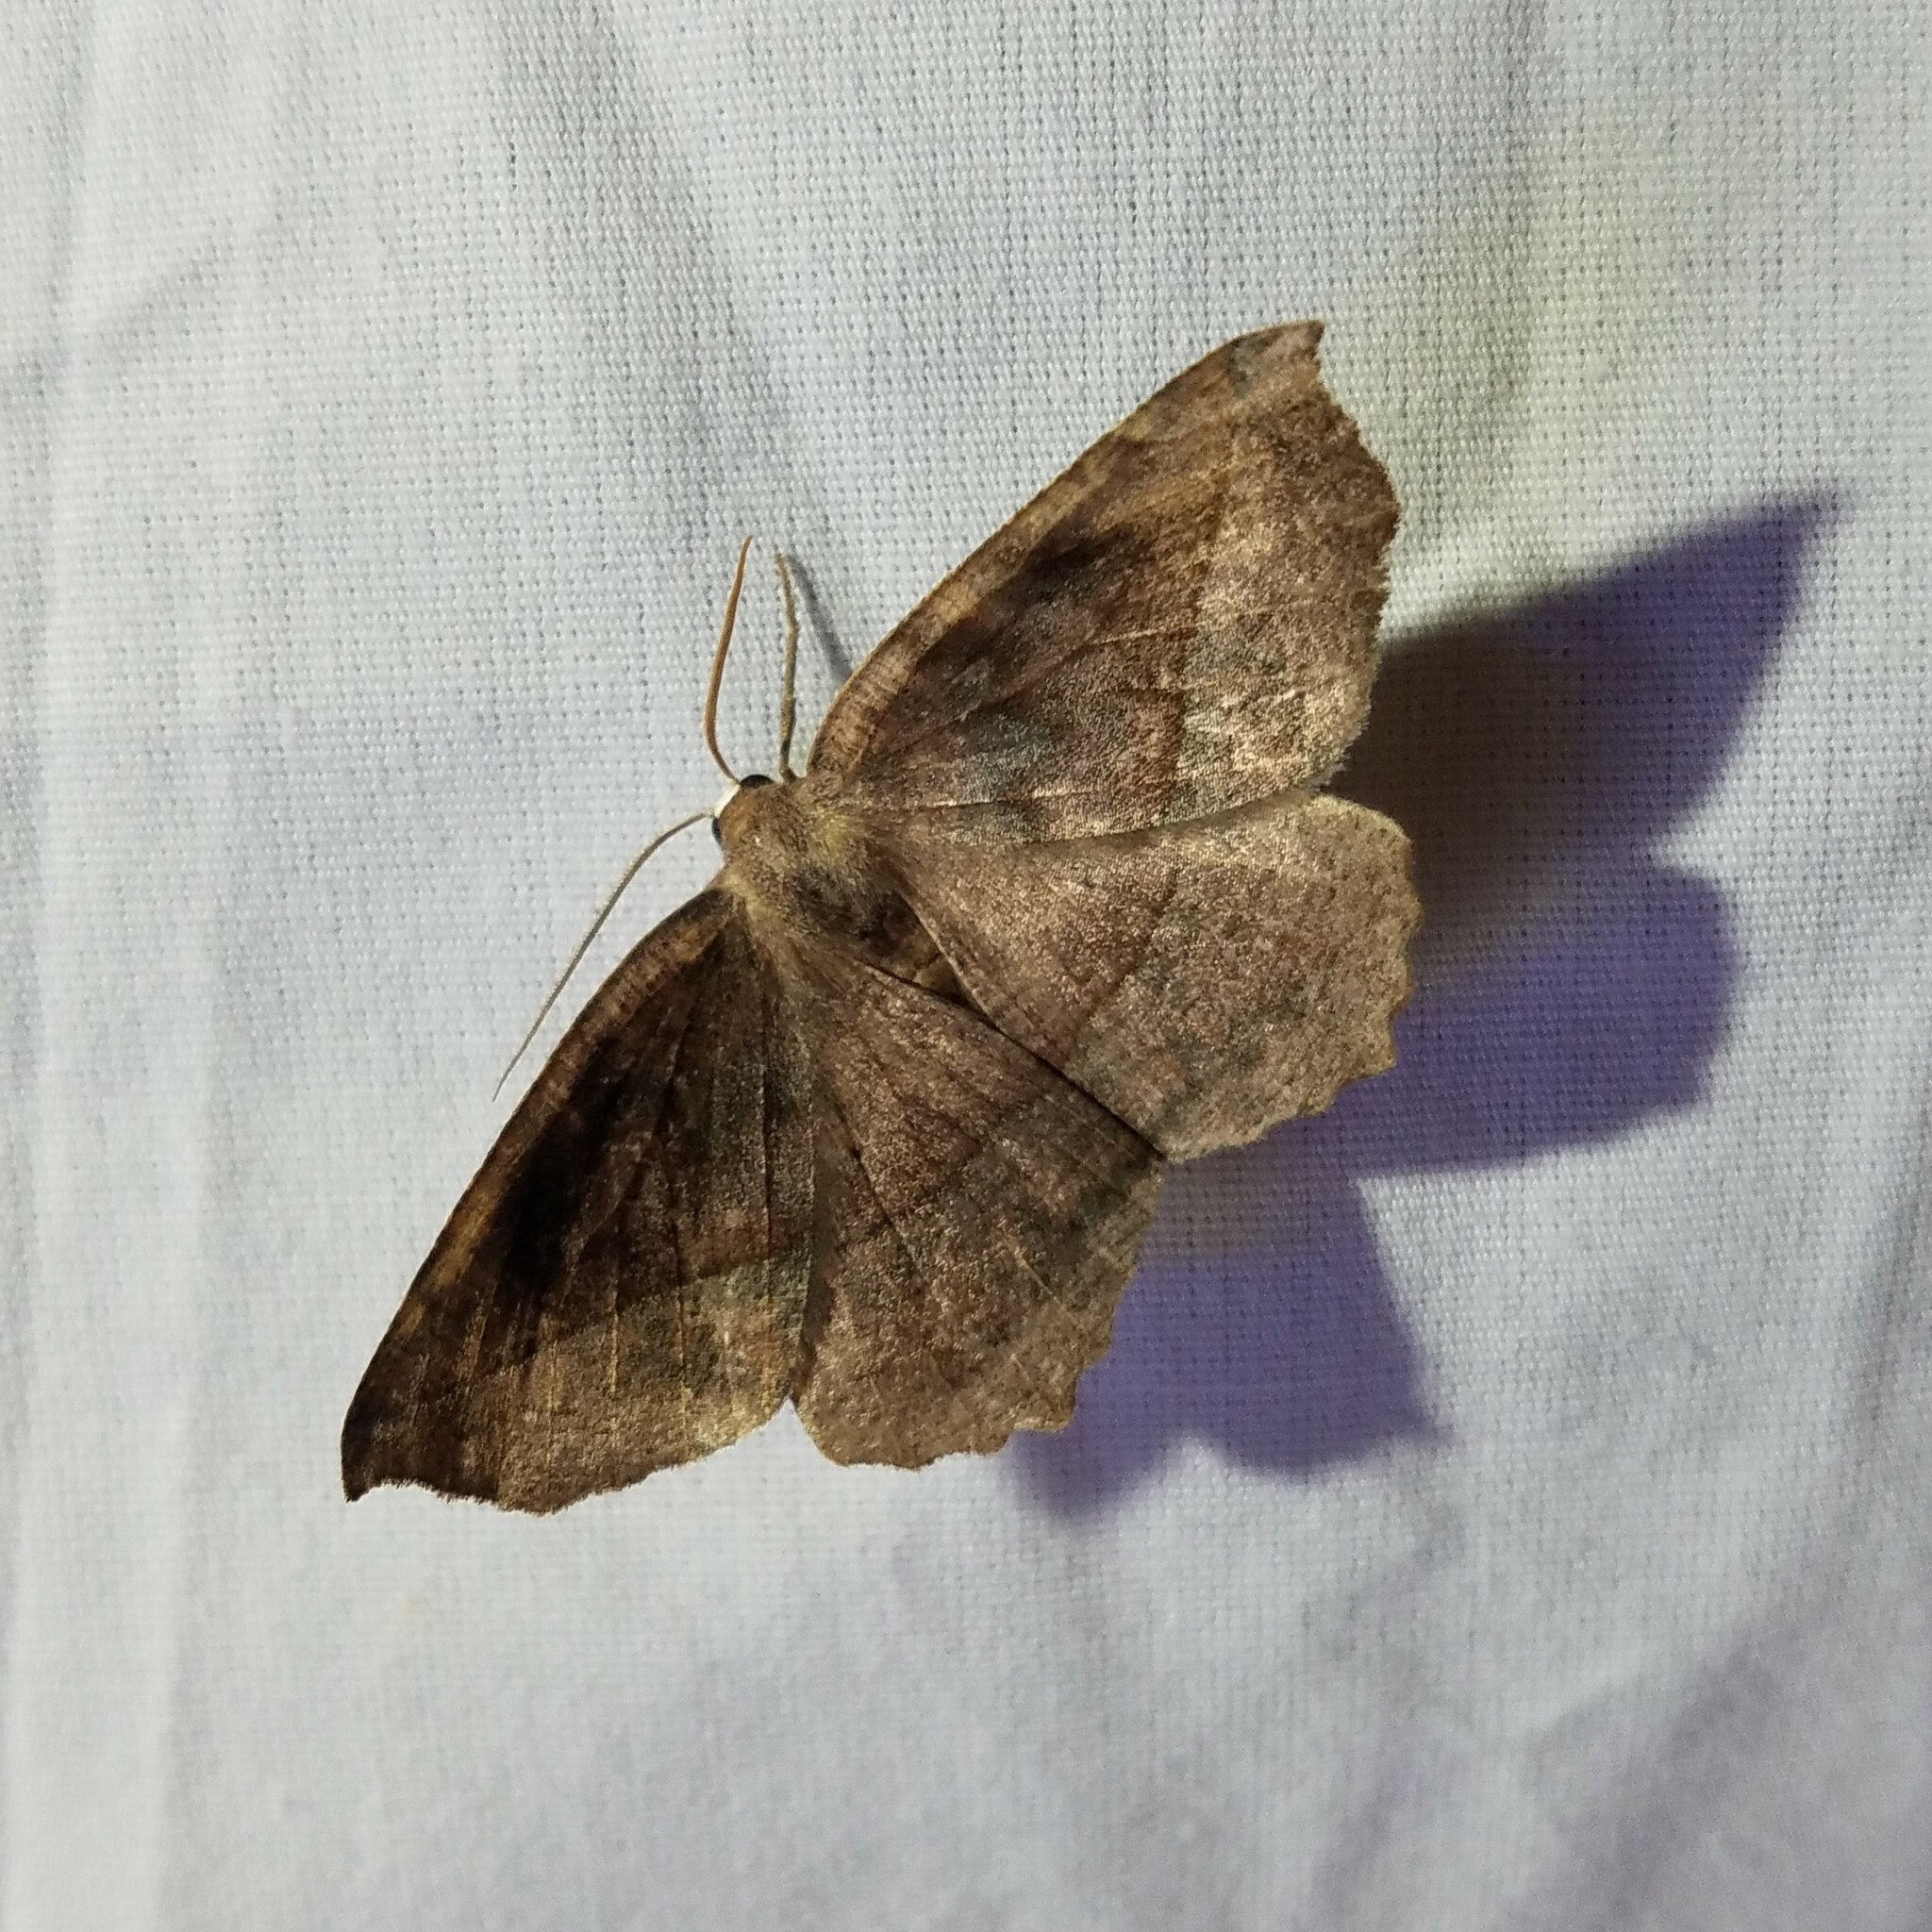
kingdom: Animalia
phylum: Arthropoda
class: Insecta
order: Lepidoptera
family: Geometridae
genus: Eutrapela
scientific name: Eutrapela clemataria
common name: Curved-toothed geometer
